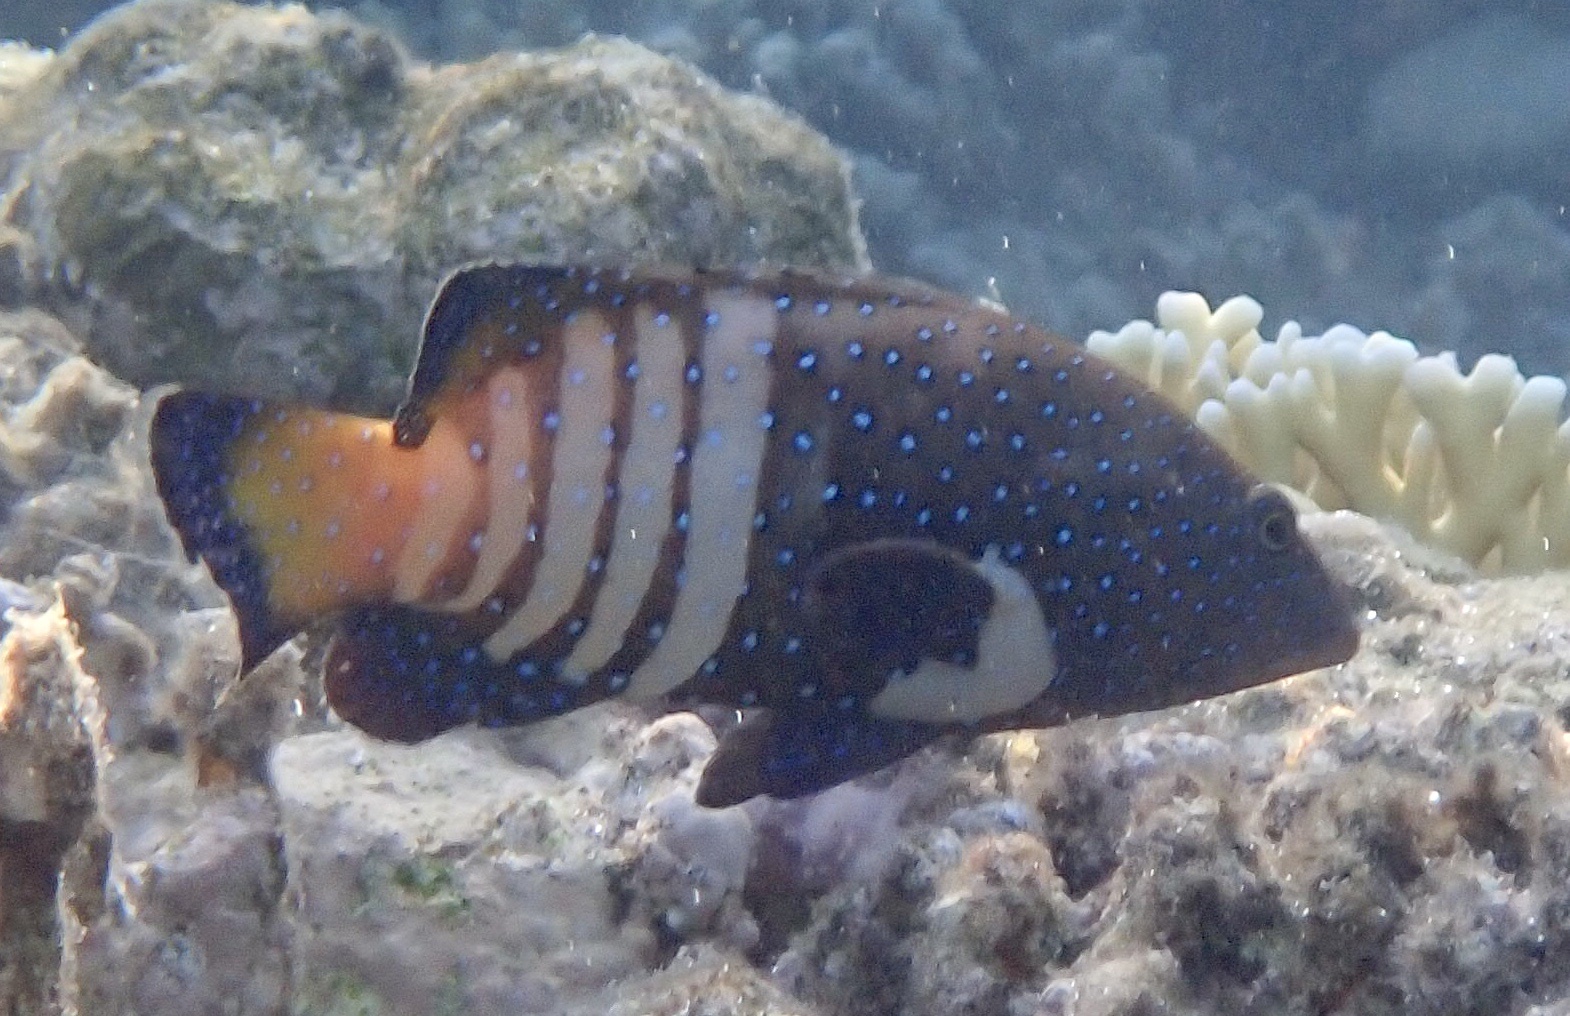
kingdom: Animalia
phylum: Chordata
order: Perciformes
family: Serranidae
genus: Cephalopholis
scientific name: Cephalopholis argus
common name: Peacock grouper
